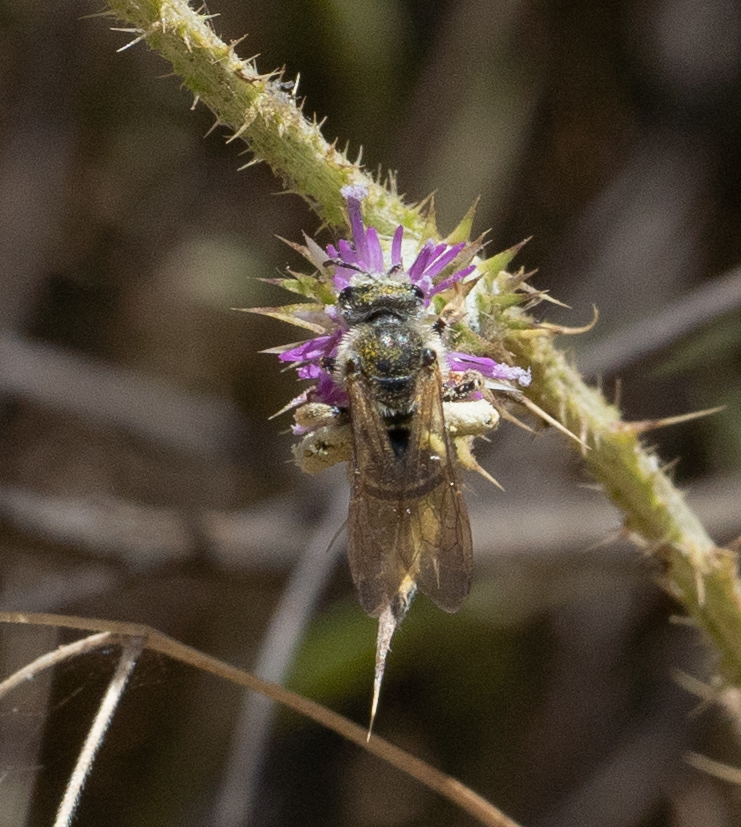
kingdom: Animalia
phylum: Arthropoda
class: Insecta
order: Hymenoptera
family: Halictidae
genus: Halictus
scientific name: Halictus farinosus
